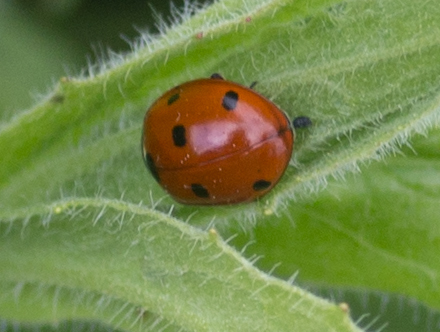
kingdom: Animalia
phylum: Arthropoda
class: Insecta
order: Coleoptera
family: Coccinellidae
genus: Coccinella
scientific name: Coccinella septempunctata
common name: Sevenspotted lady beetle
